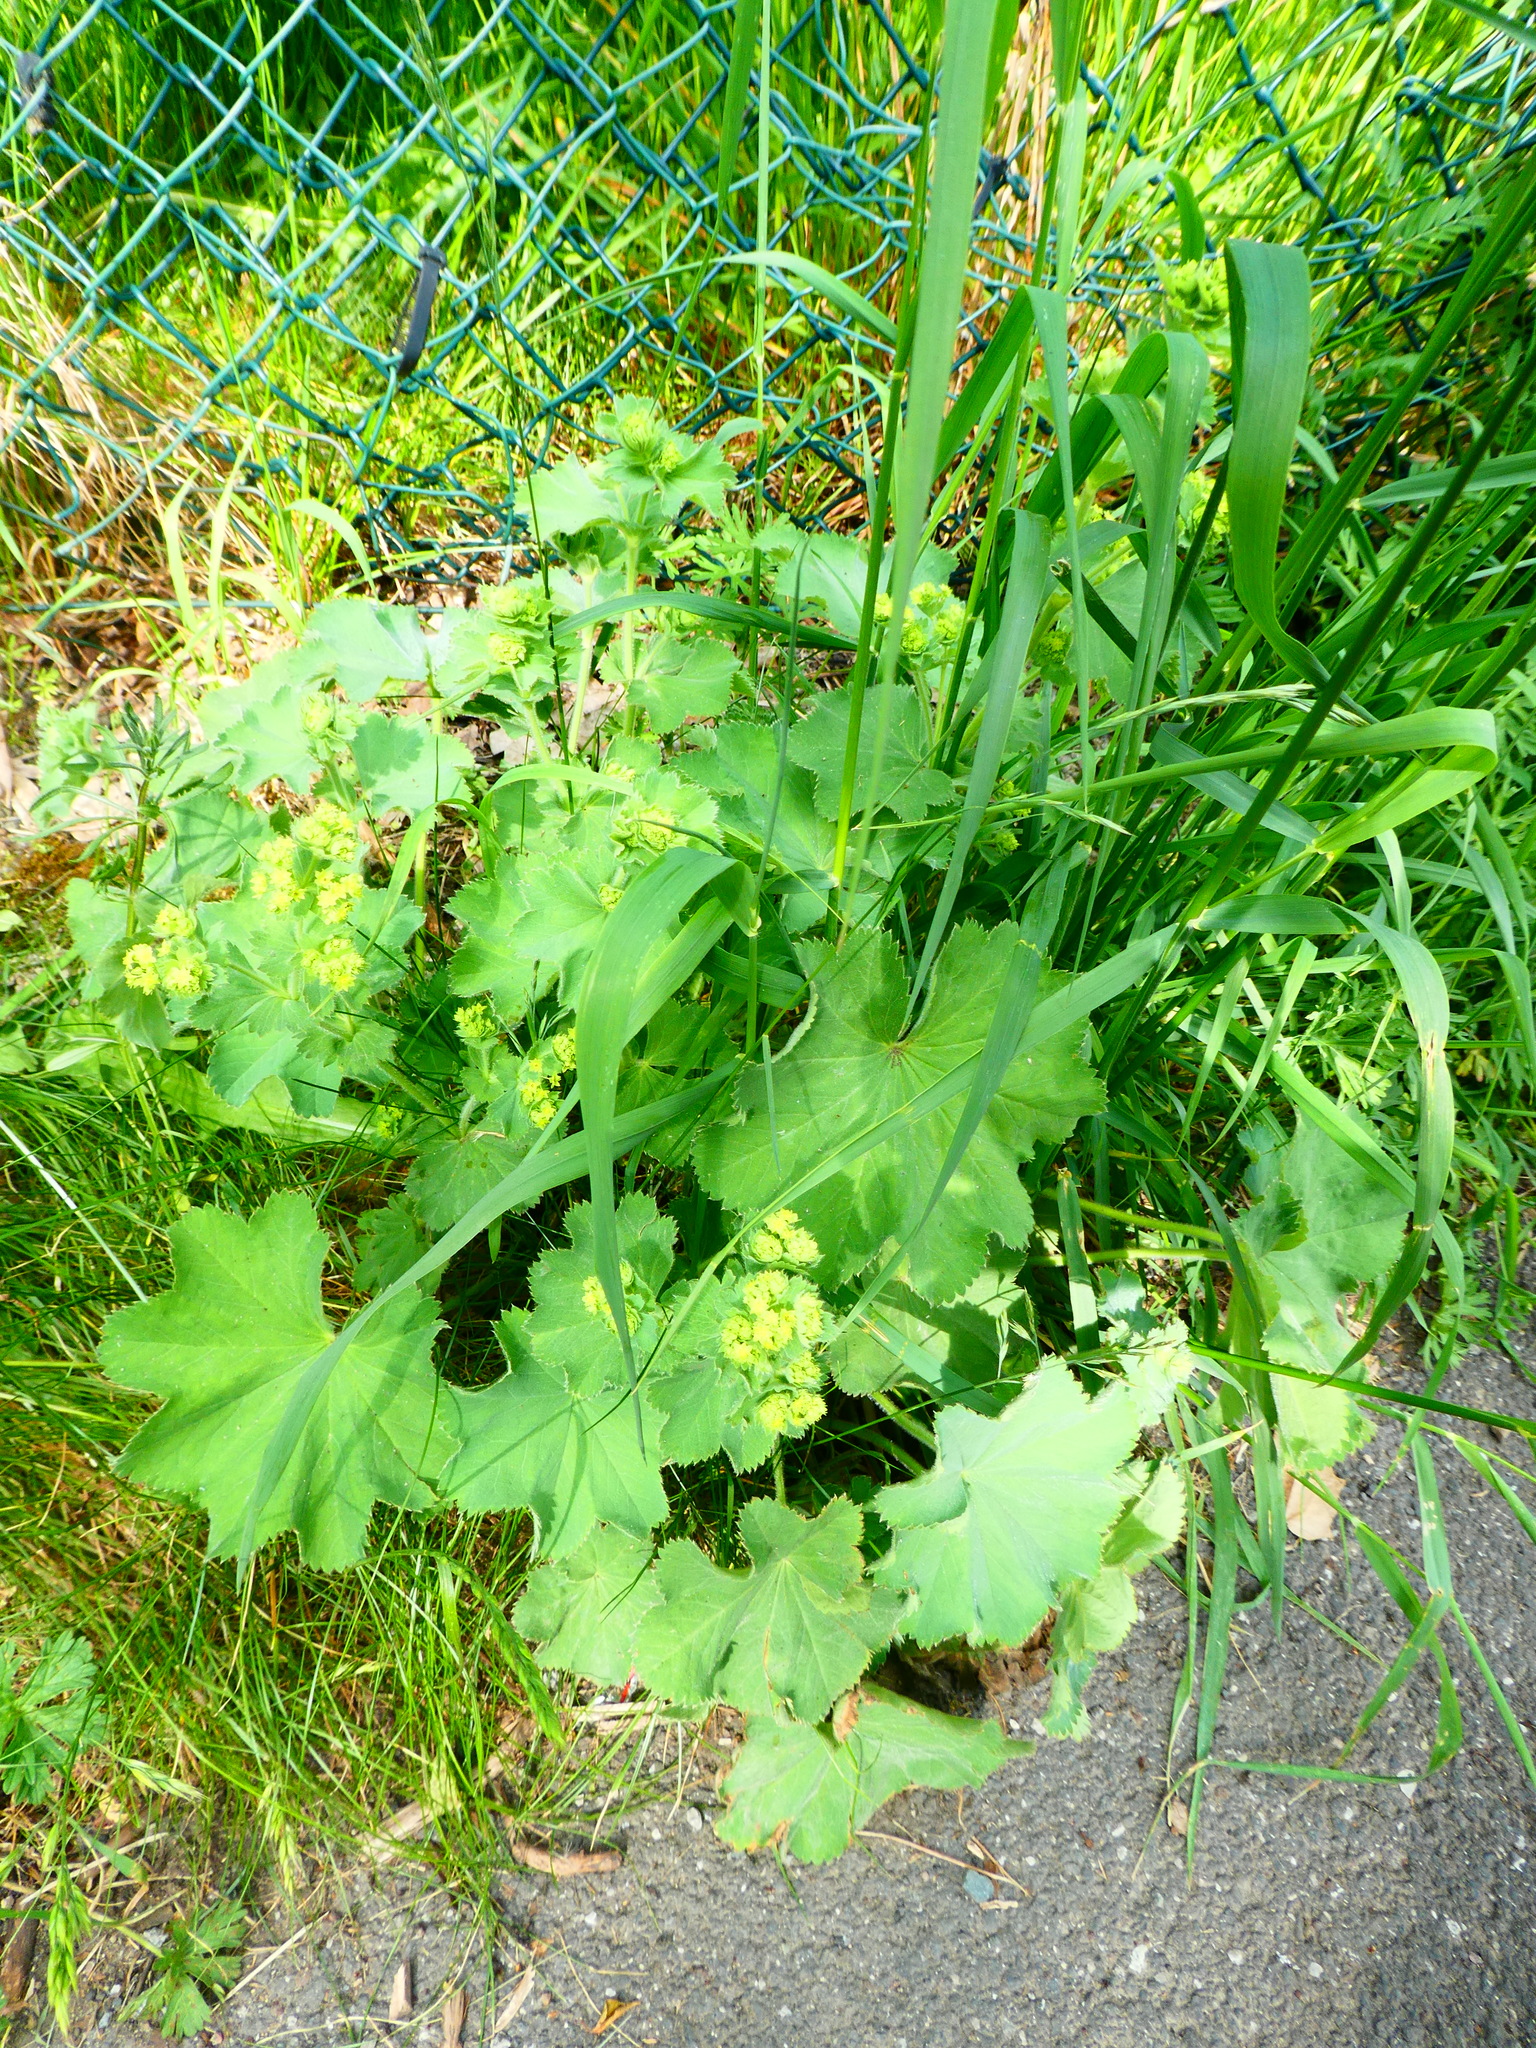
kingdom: Plantae
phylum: Tracheophyta
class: Magnoliopsida
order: Rosales
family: Rosaceae
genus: Alchemilla
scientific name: Alchemilla mollis
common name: Lady's-mantle
